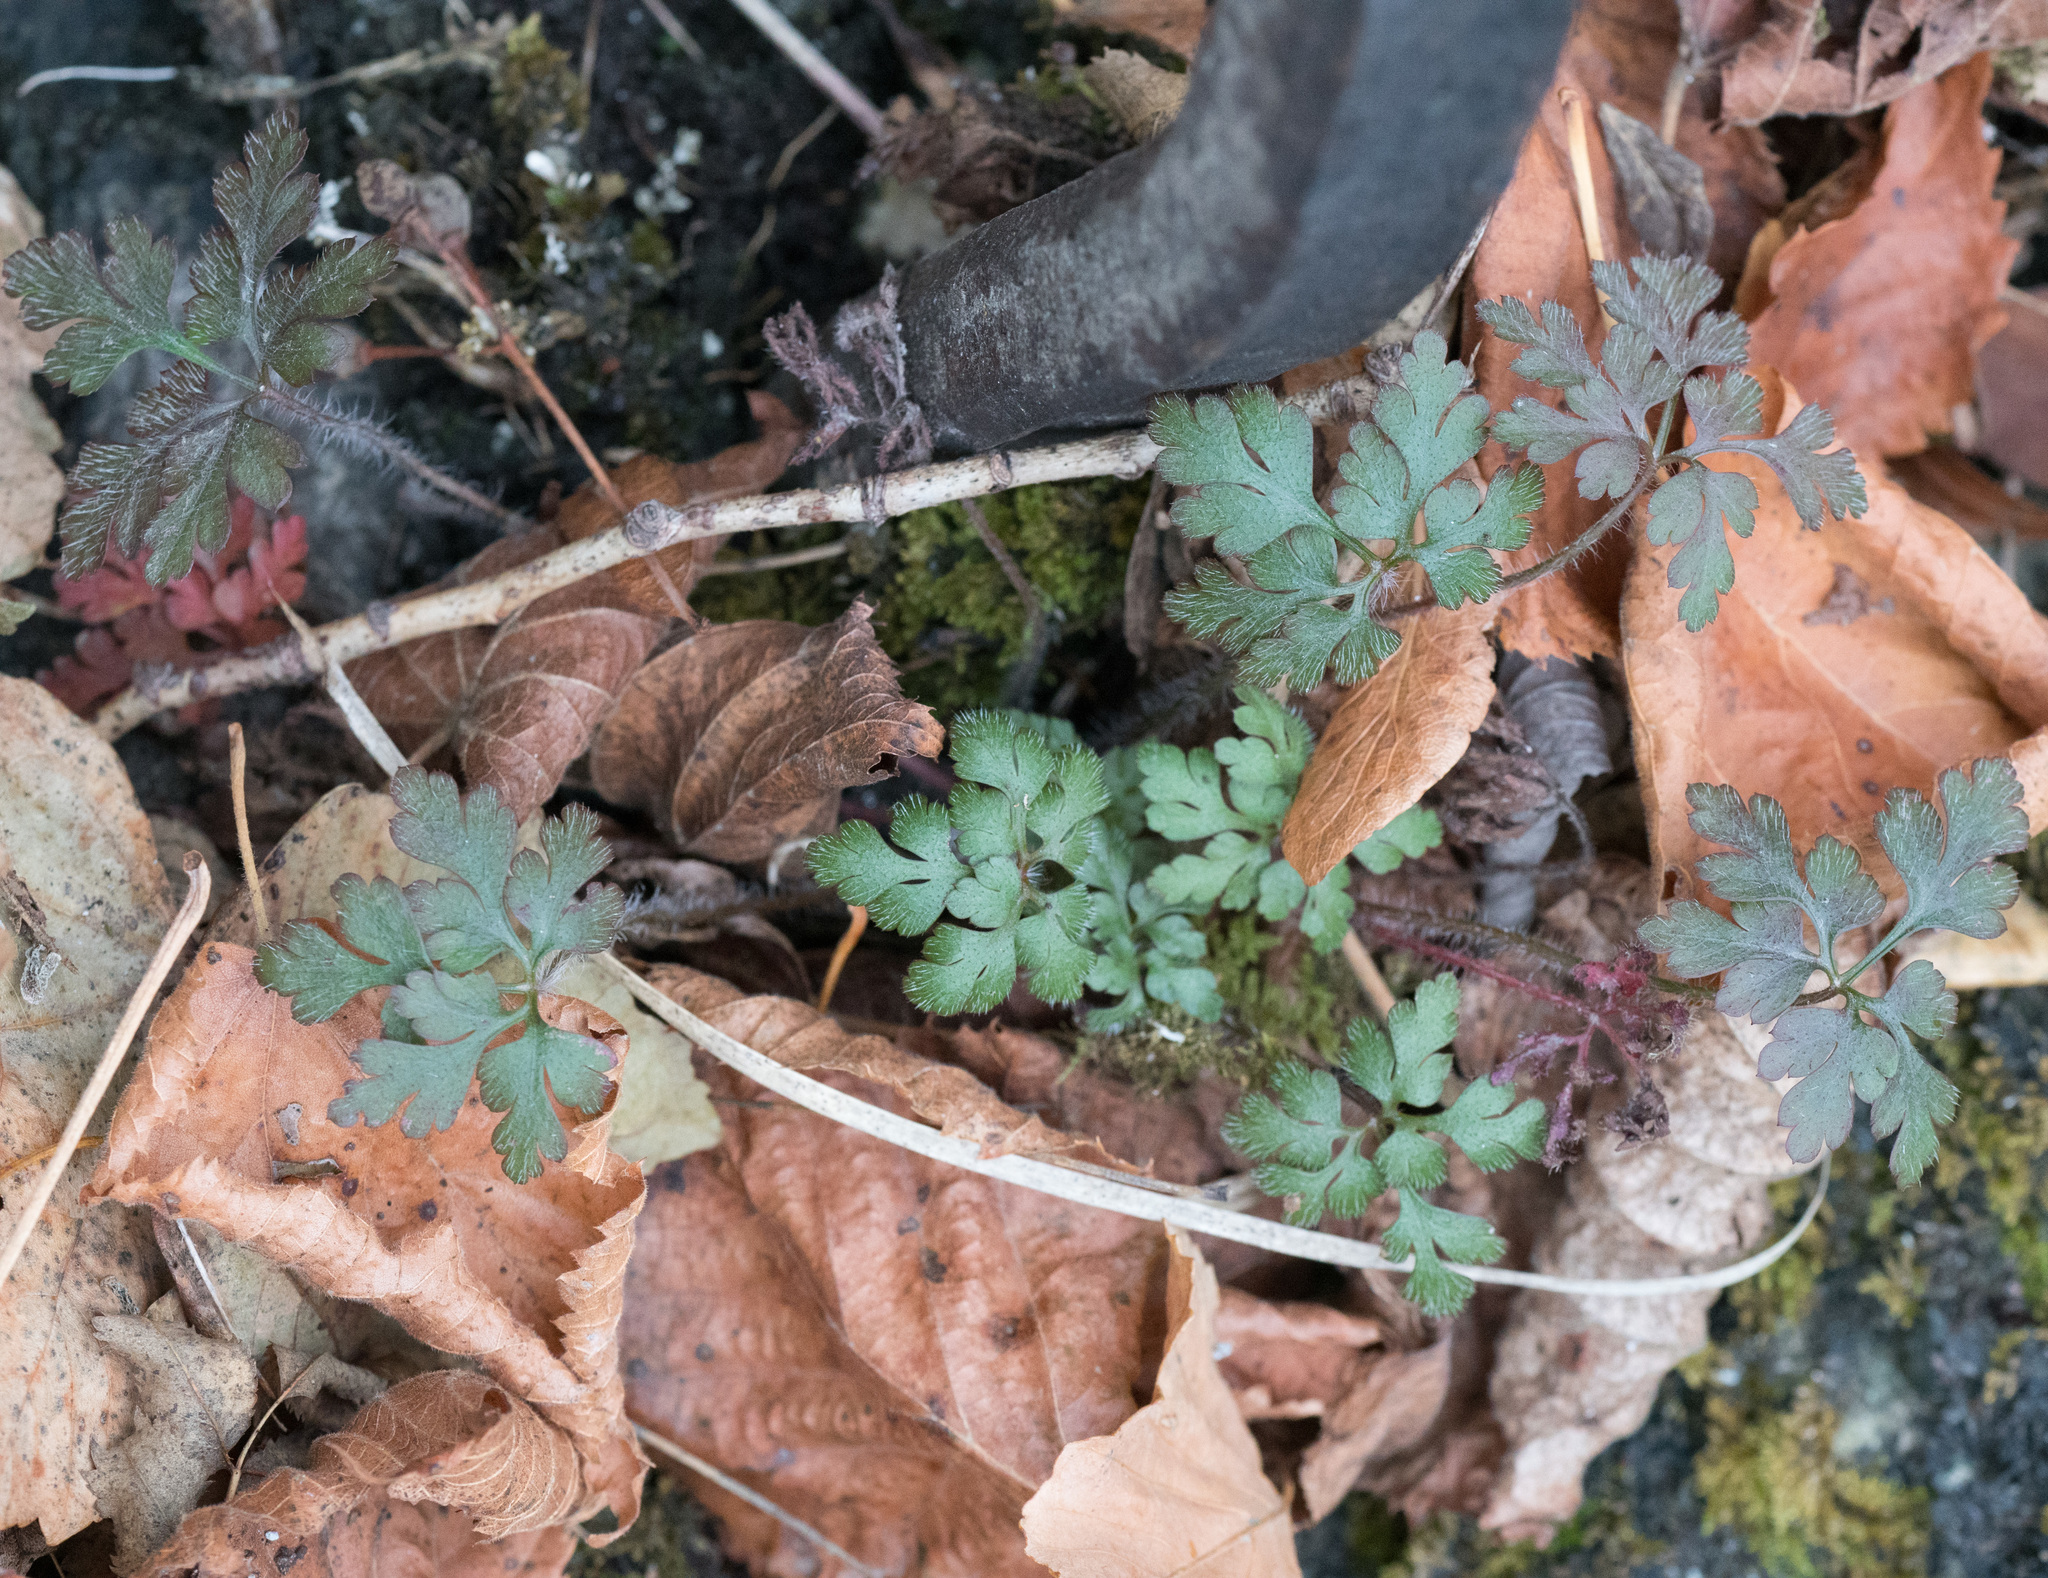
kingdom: Plantae
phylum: Tracheophyta
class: Magnoliopsida
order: Geraniales
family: Geraniaceae
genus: Geranium
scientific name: Geranium robertianum
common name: Herb-robert
